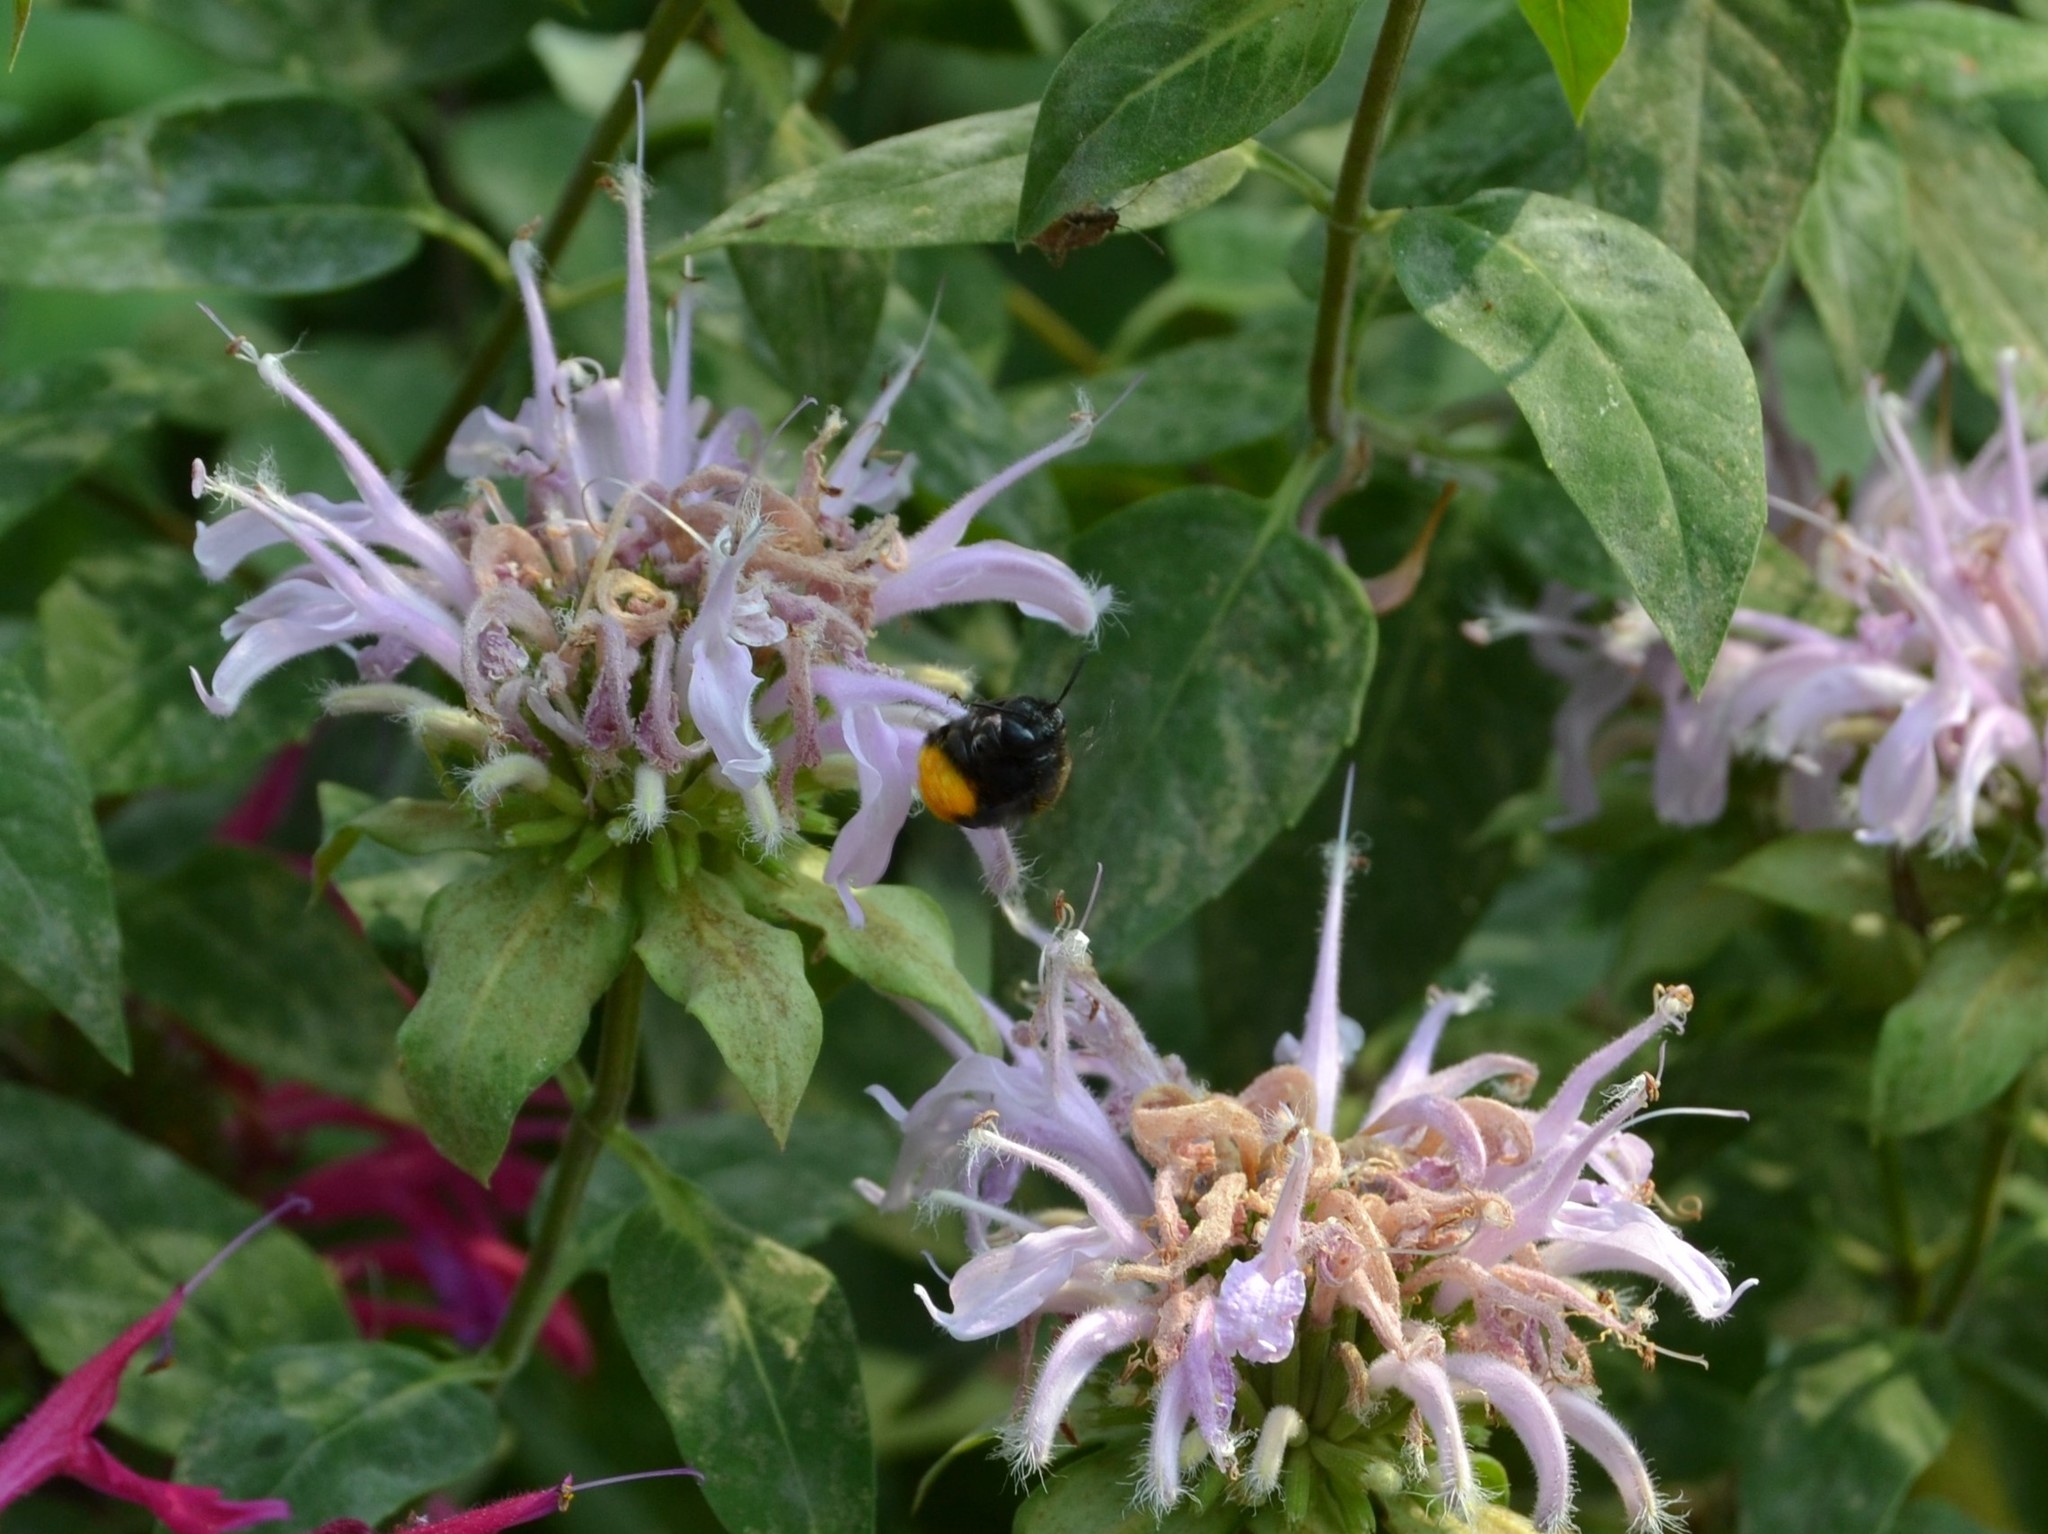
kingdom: Animalia
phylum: Arthropoda
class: Insecta
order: Hymenoptera
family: Apidae
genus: Melissodes
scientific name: Melissodes bimaculatus
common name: Two-spotted long-horned bee
